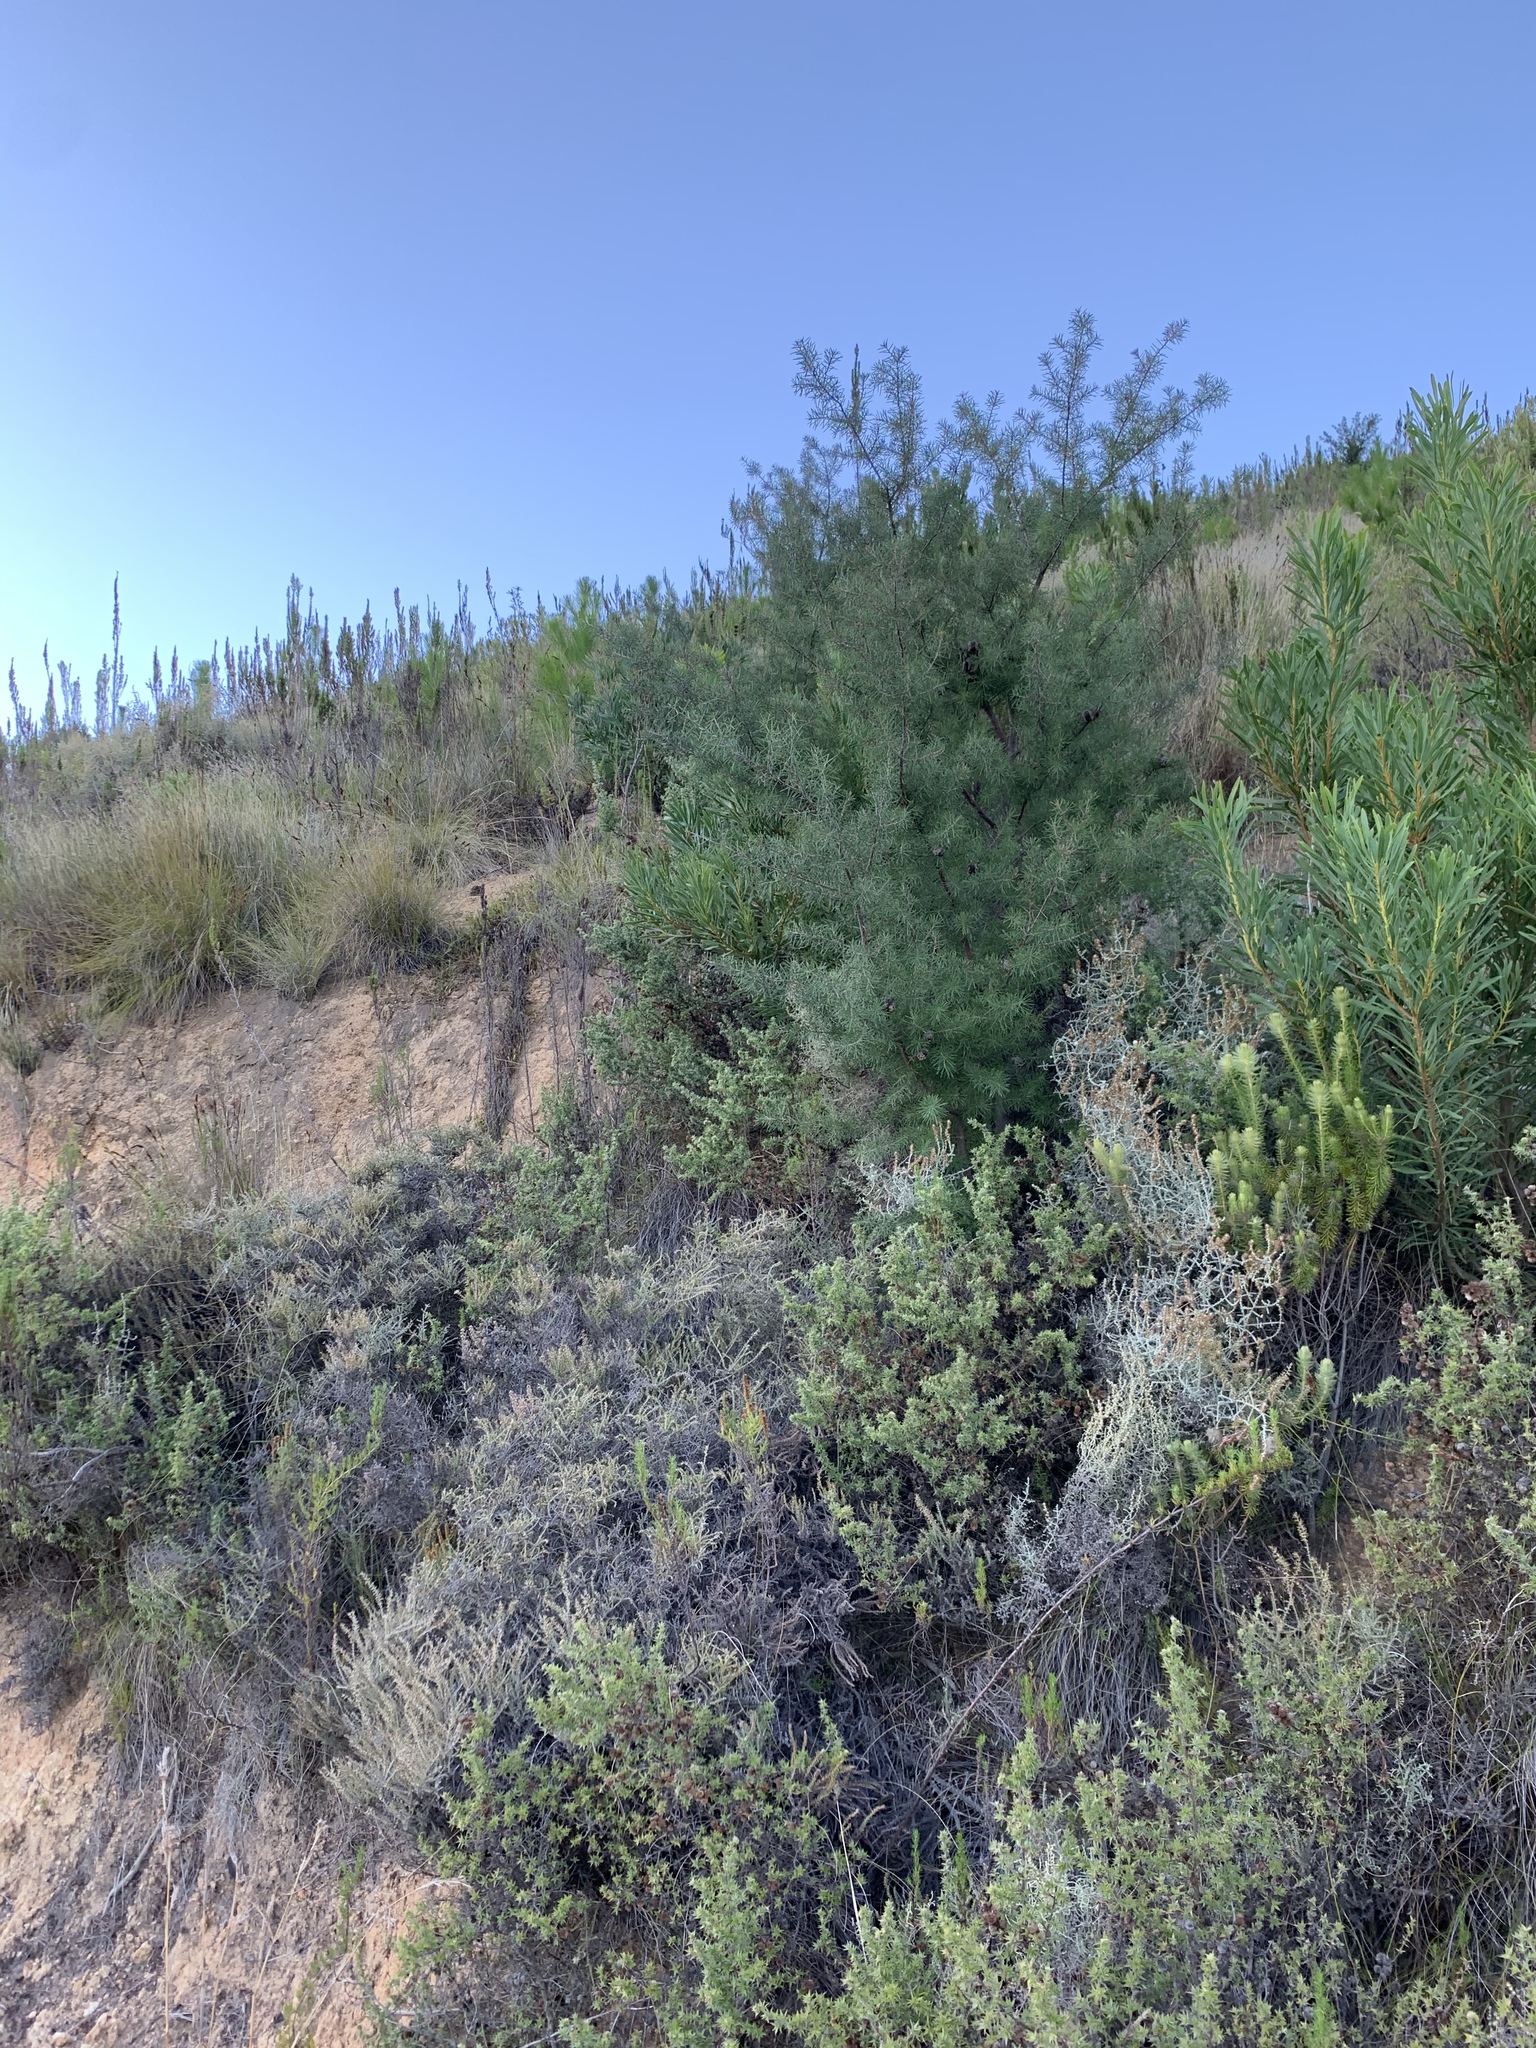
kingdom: Plantae
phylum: Tracheophyta
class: Magnoliopsida
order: Proteales
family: Proteaceae
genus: Hakea
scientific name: Hakea sericea
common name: Needle bush
